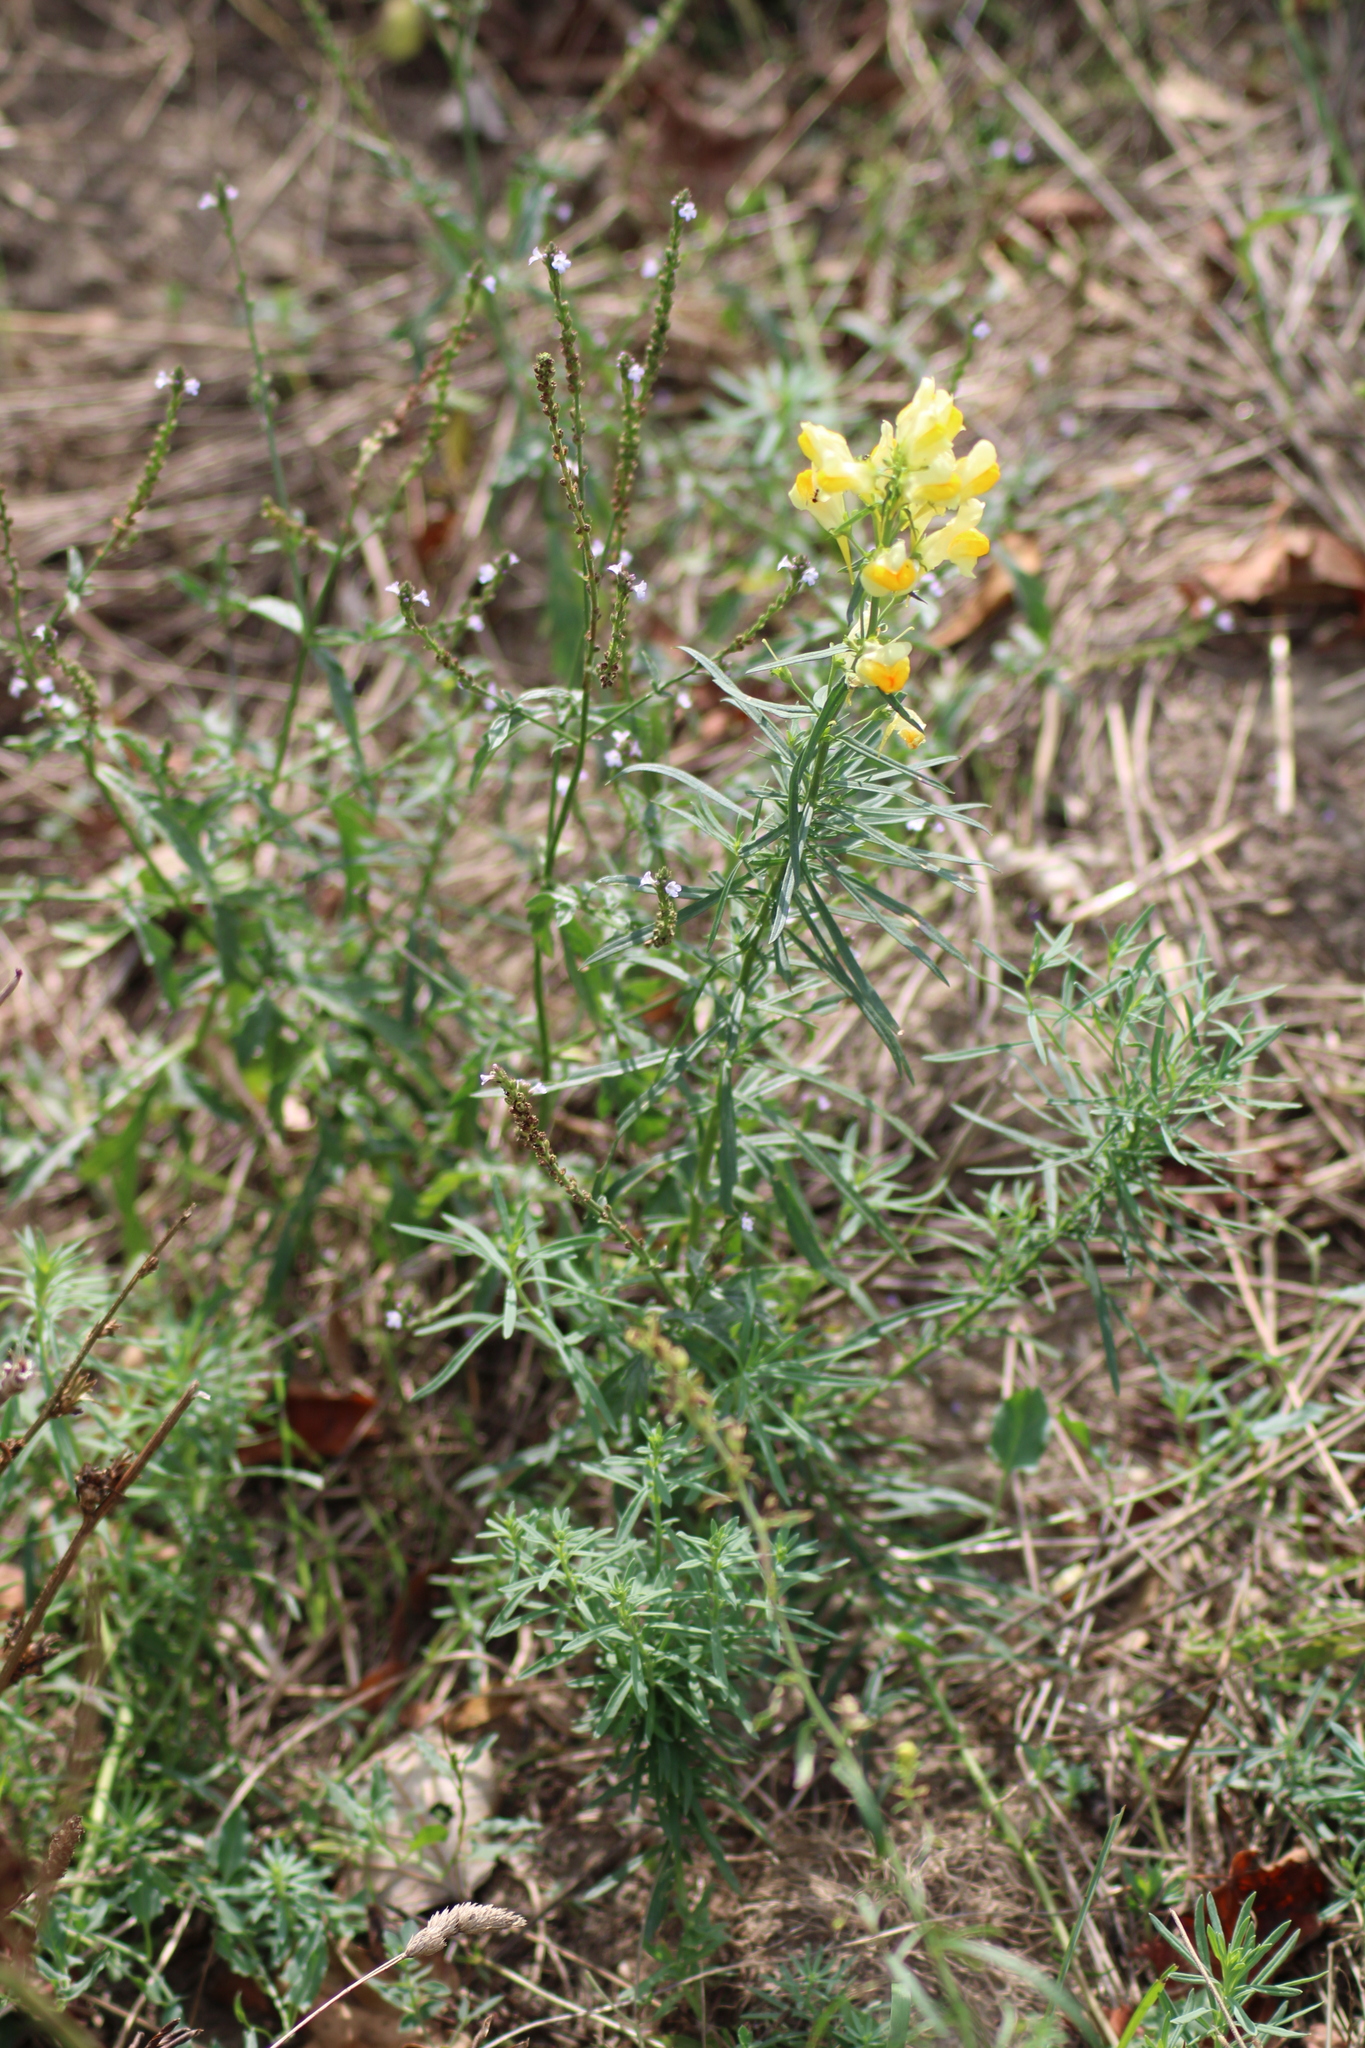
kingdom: Plantae
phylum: Tracheophyta
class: Magnoliopsida
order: Lamiales
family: Plantaginaceae
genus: Linaria
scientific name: Linaria vulgaris
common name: Butter and eggs
